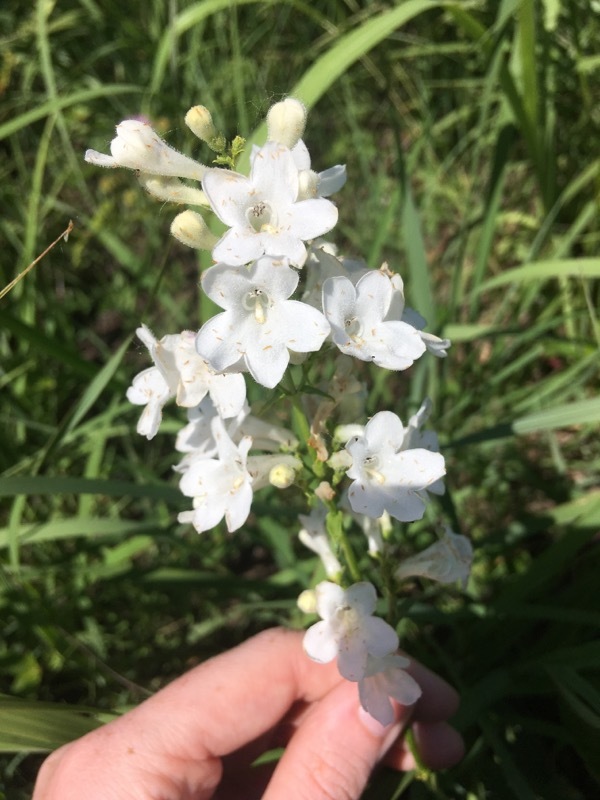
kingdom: Plantae
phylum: Tracheophyta
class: Magnoliopsida
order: Lamiales
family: Plantaginaceae
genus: Penstemon
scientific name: Penstemon tubaeflorus
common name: White wand beardtongue
